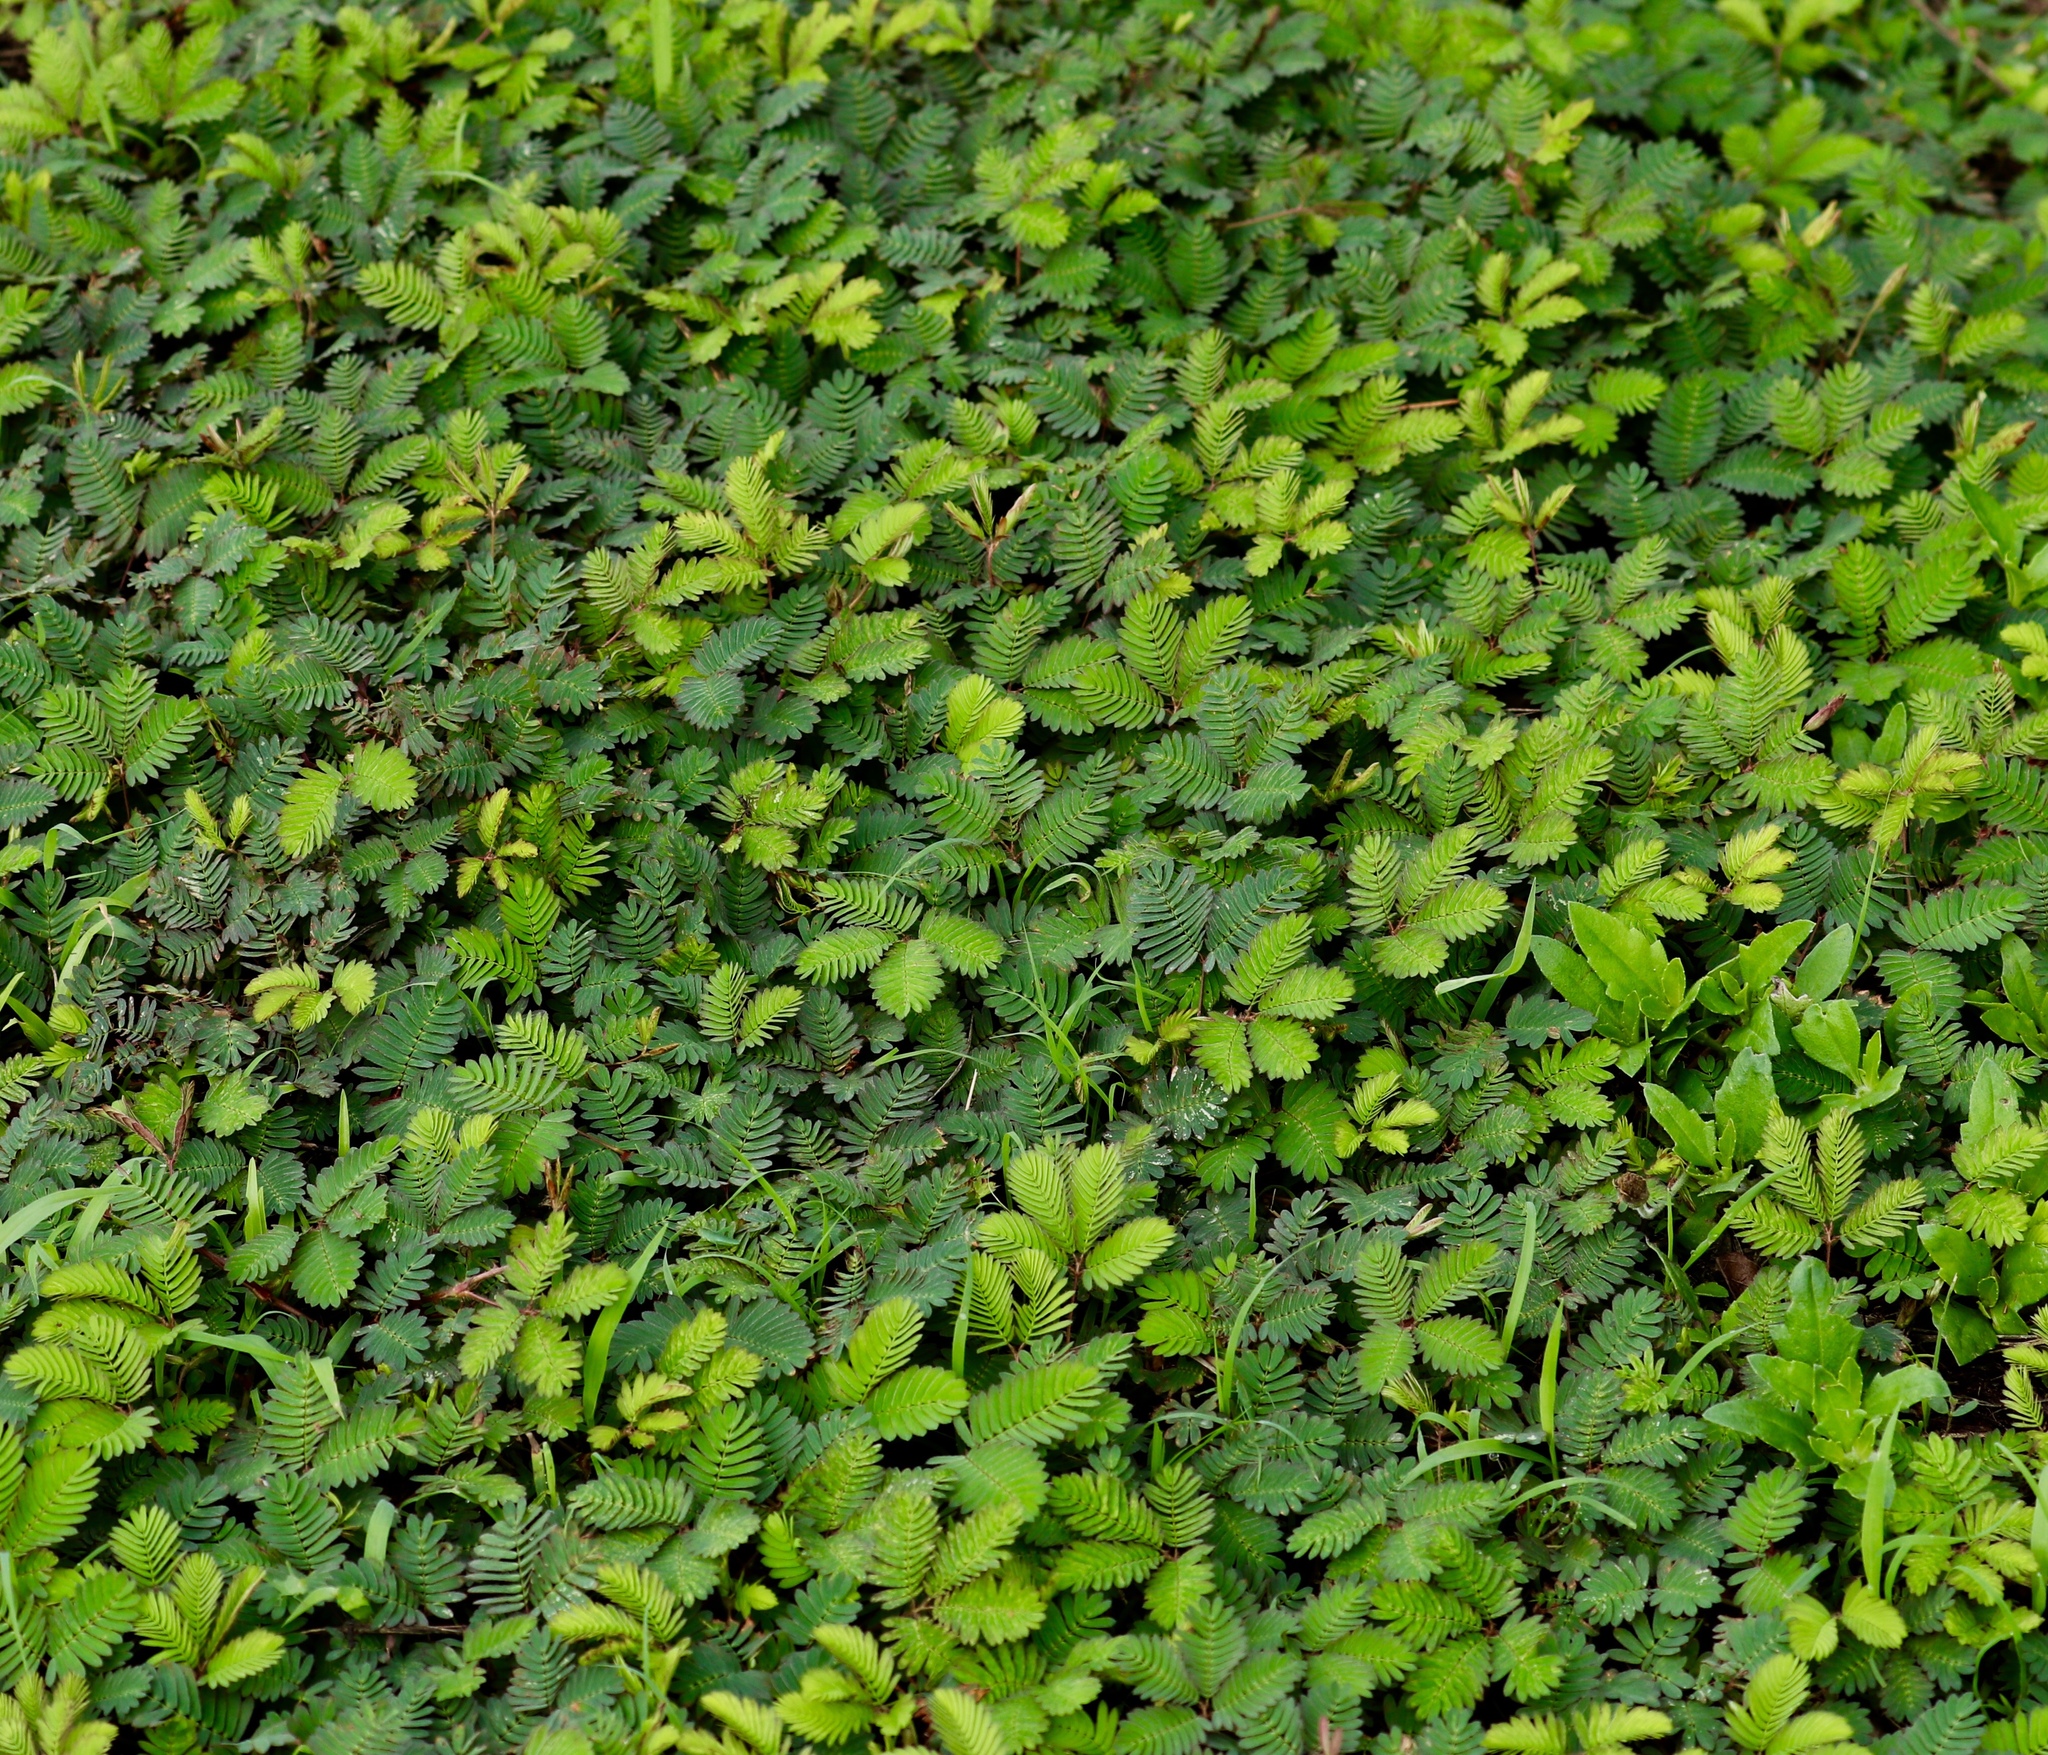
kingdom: Plantae
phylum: Tracheophyta
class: Magnoliopsida
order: Fabales
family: Fabaceae
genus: Mimosa
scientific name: Mimosa pudica
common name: Sensitive plant
